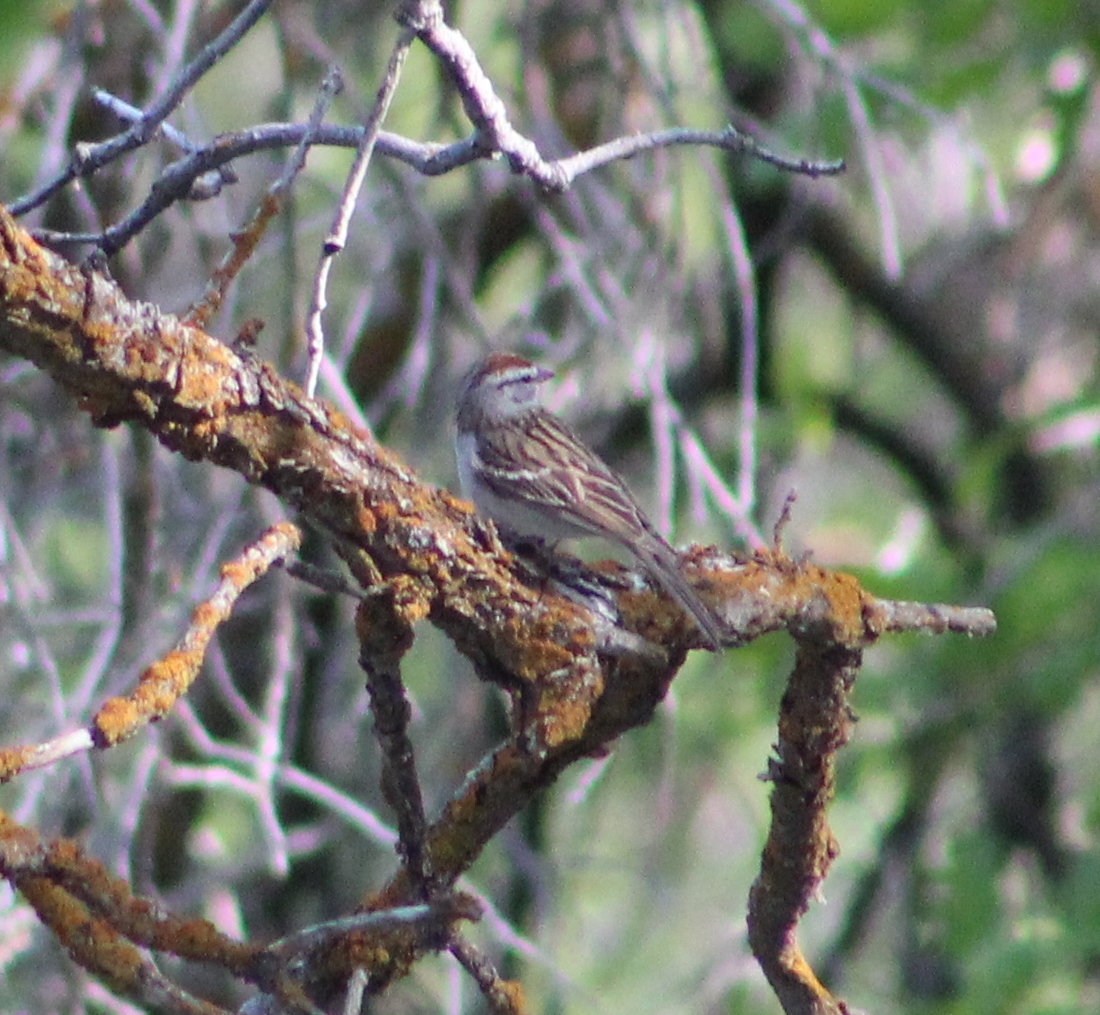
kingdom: Animalia
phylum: Chordata
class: Aves
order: Passeriformes
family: Passerellidae
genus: Spizella
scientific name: Spizella passerina
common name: Chipping sparrow
